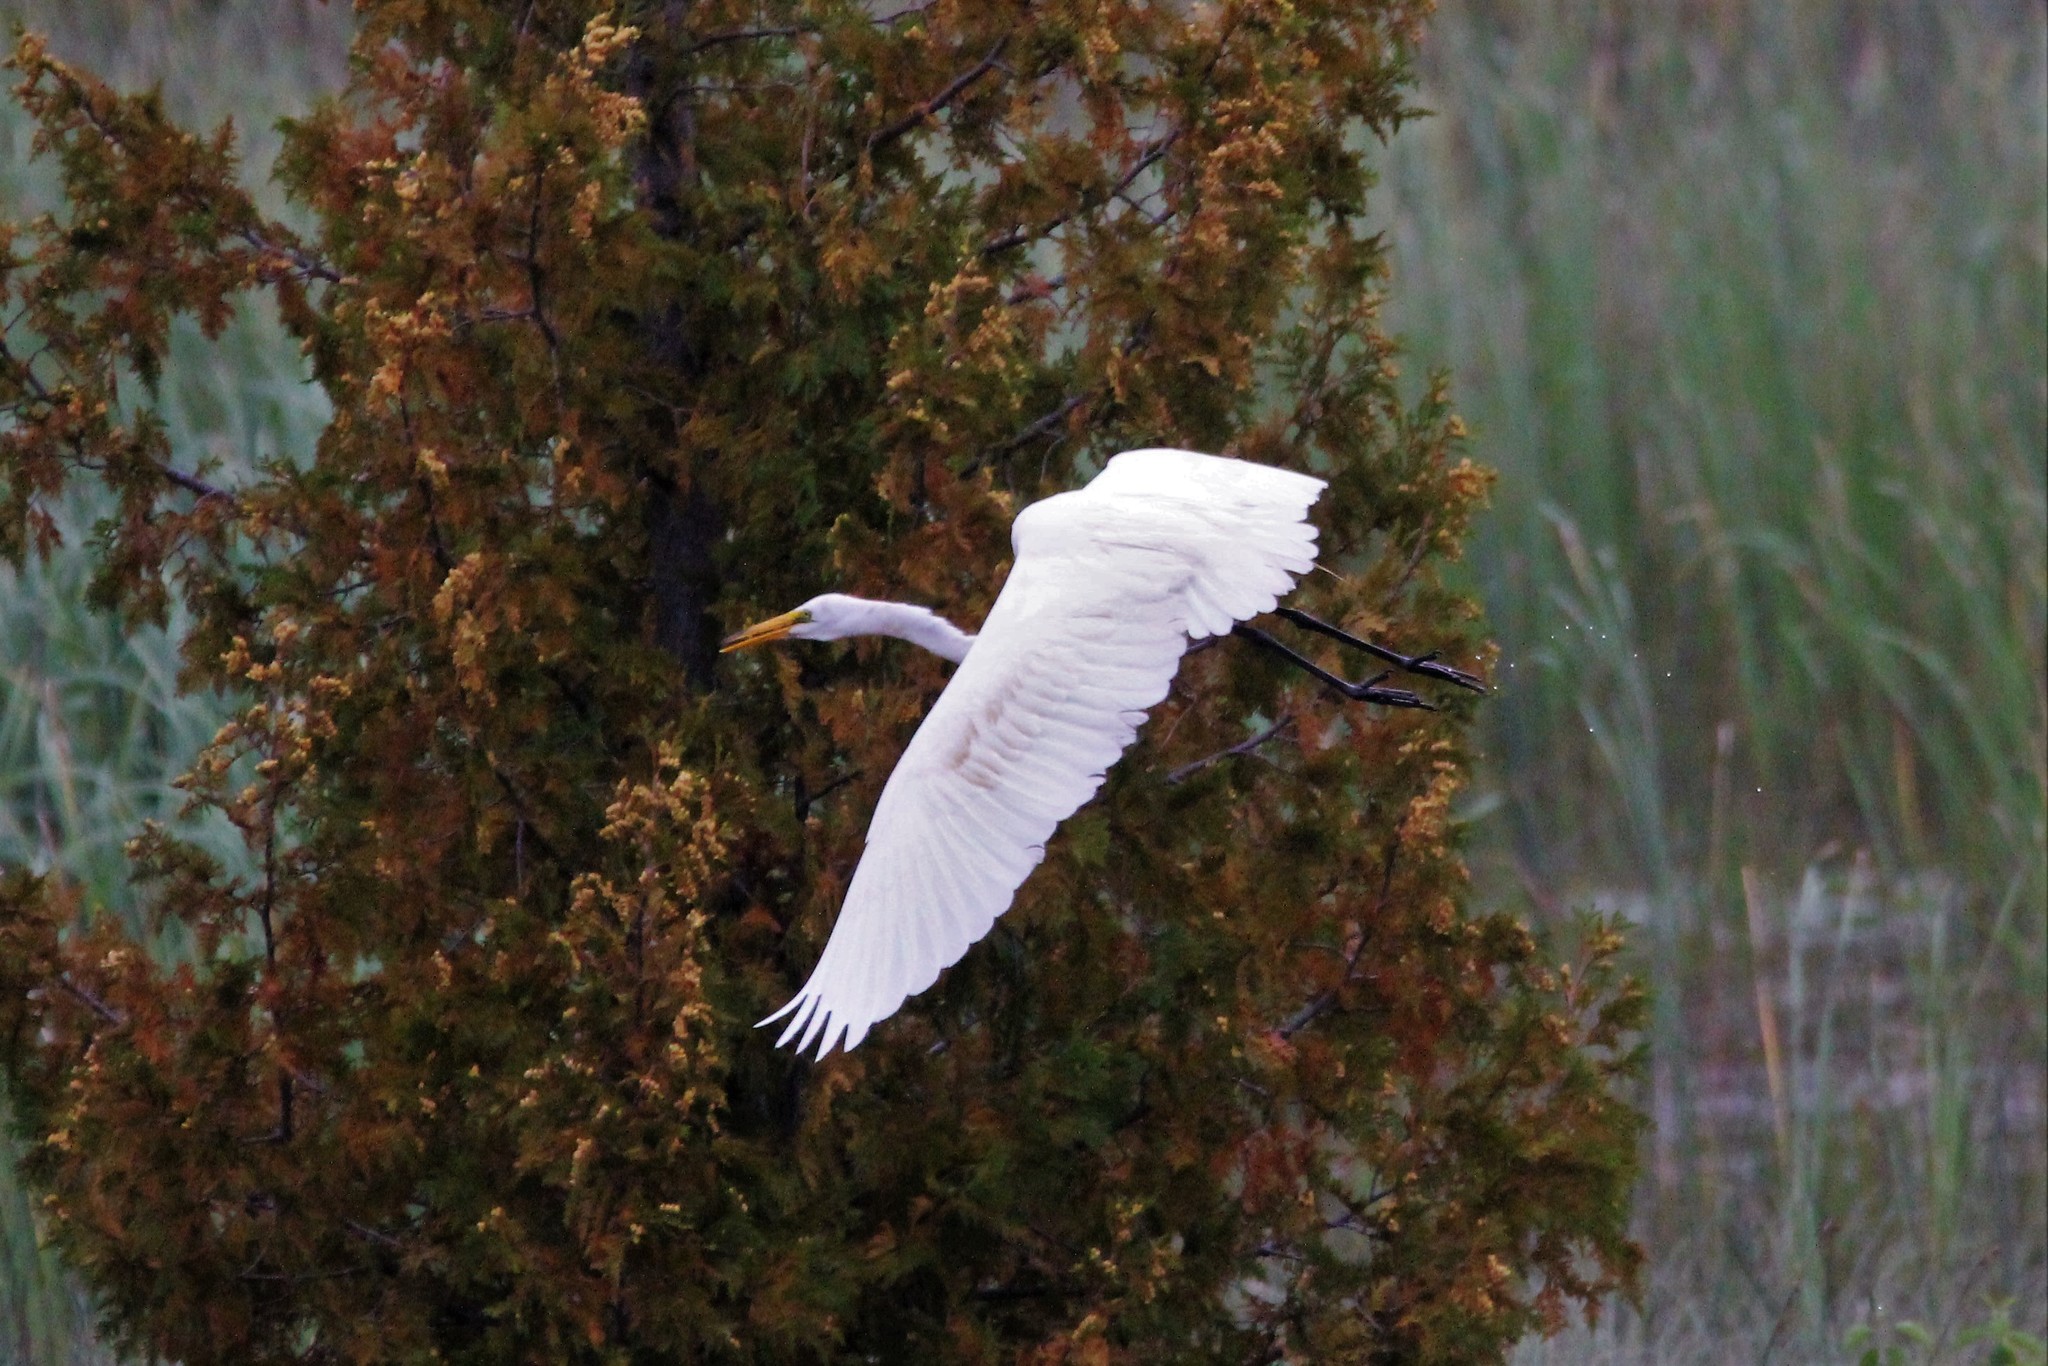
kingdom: Animalia
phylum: Chordata
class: Aves
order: Pelecaniformes
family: Ardeidae
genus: Ardea
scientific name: Ardea alba
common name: Great egret
